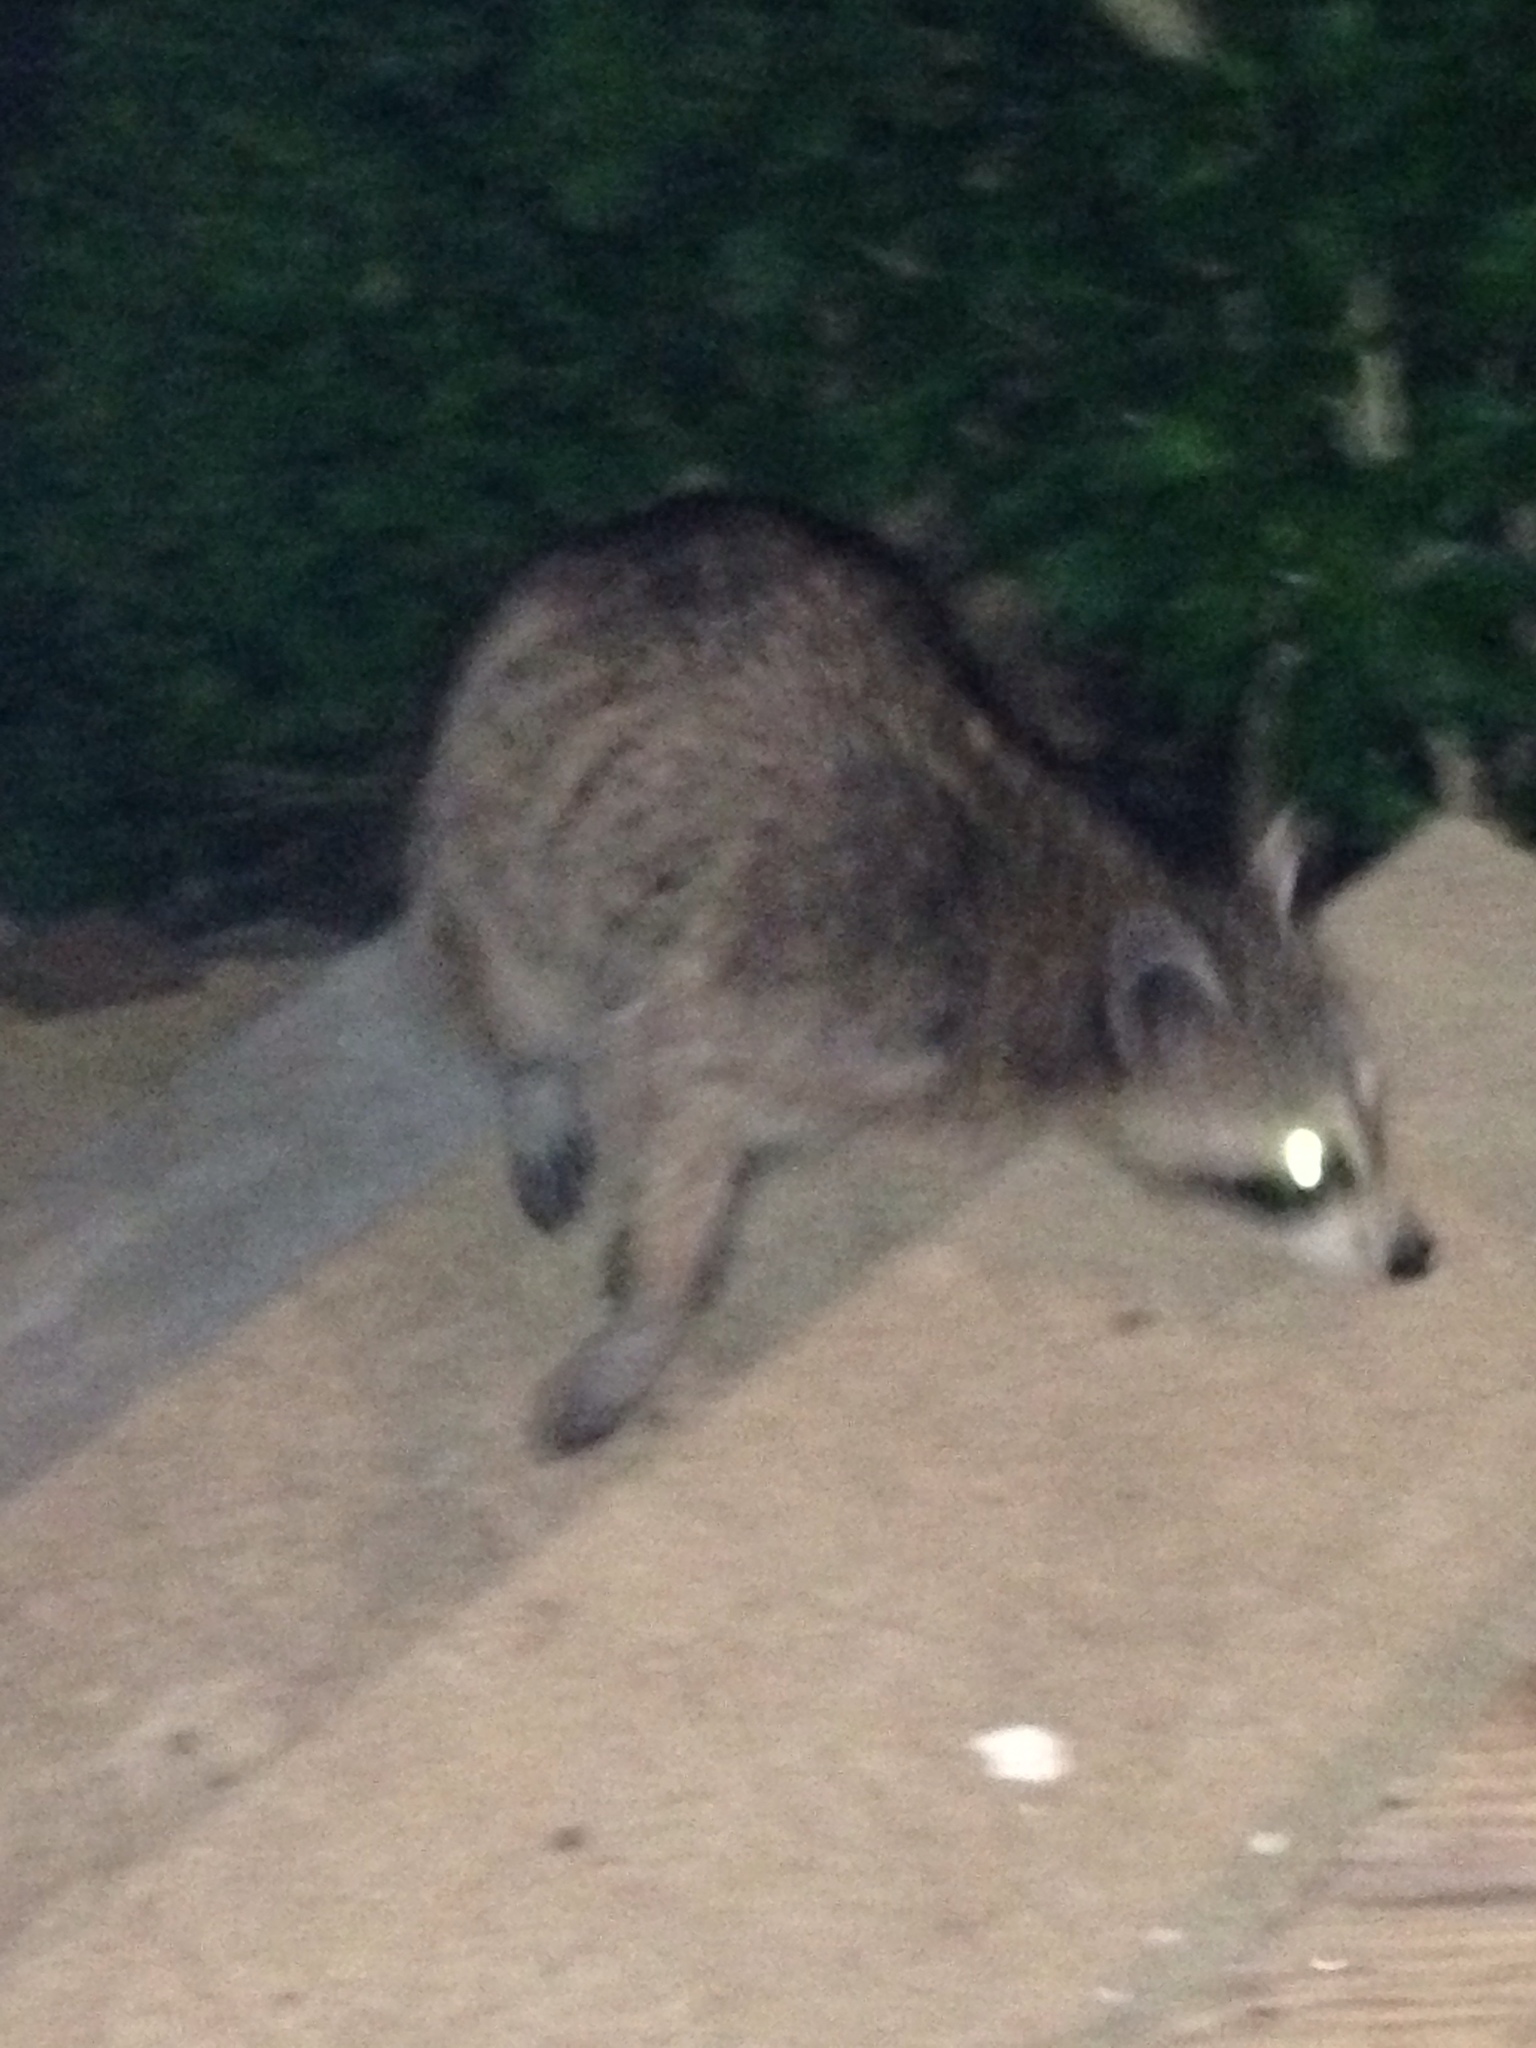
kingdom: Animalia
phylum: Chordata
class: Mammalia
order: Carnivora
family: Procyonidae
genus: Procyon
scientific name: Procyon lotor
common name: Raccoon
